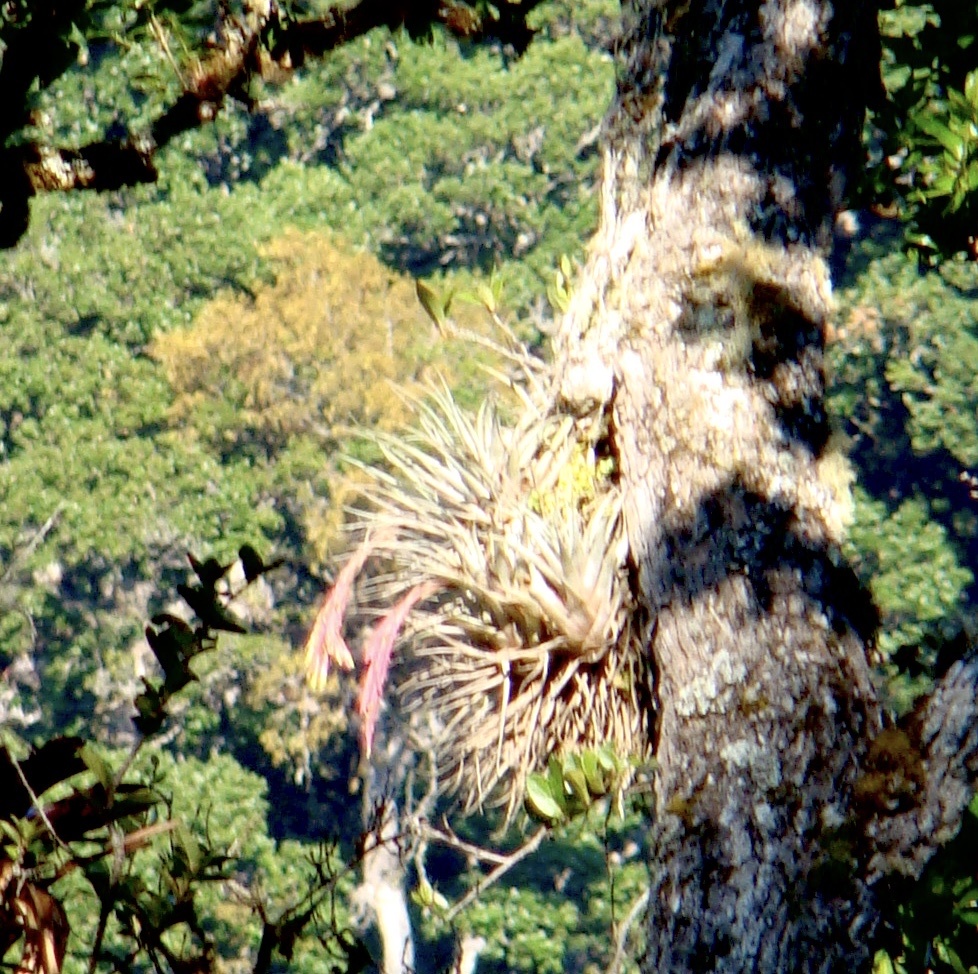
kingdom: Plantae
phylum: Tracheophyta
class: Liliopsida
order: Poales
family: Bromeliaceae
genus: Vriesea
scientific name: Vriesea castaneobulbosa
